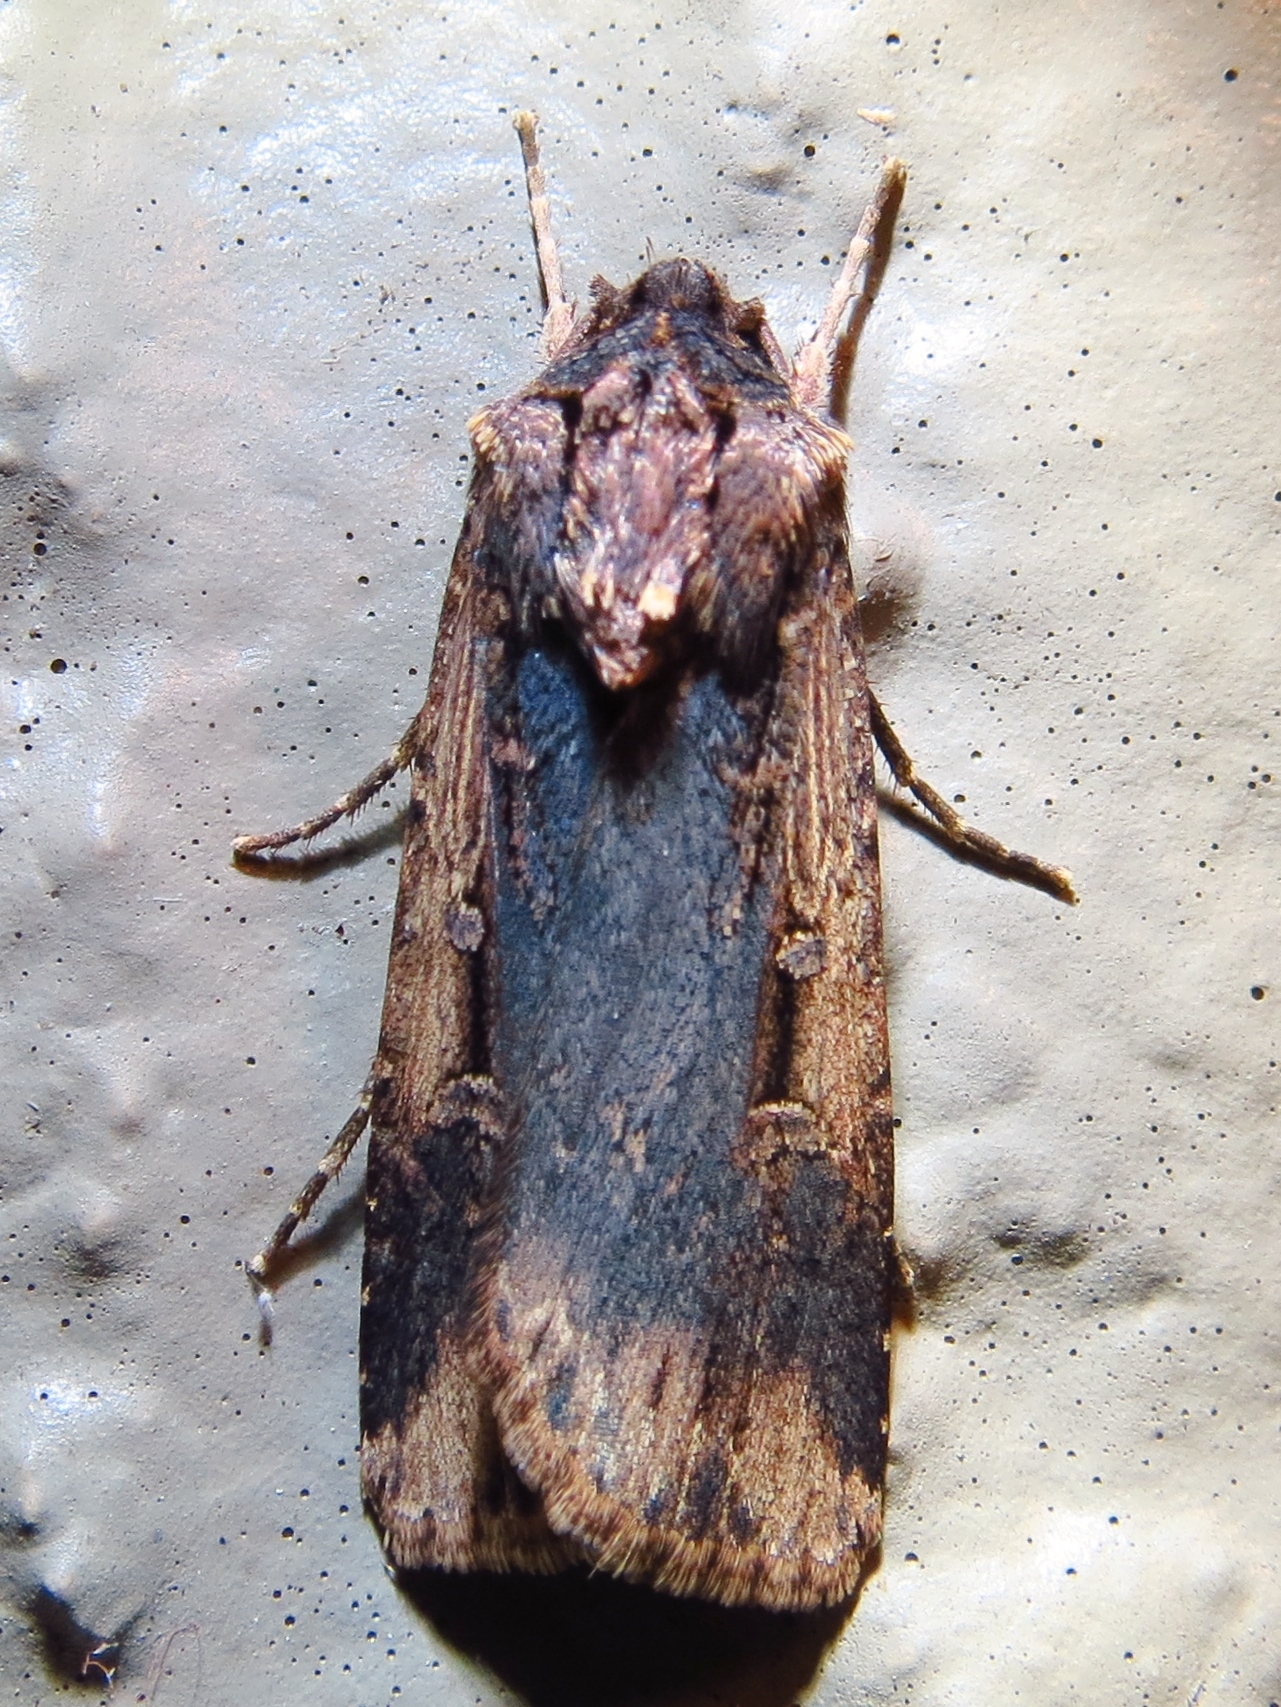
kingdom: Animalia
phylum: Arthropoda
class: Insecta
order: Lepidoptera
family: Noctuidae
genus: Feltia
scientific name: Feltia subterranea
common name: Granulate cutworm
